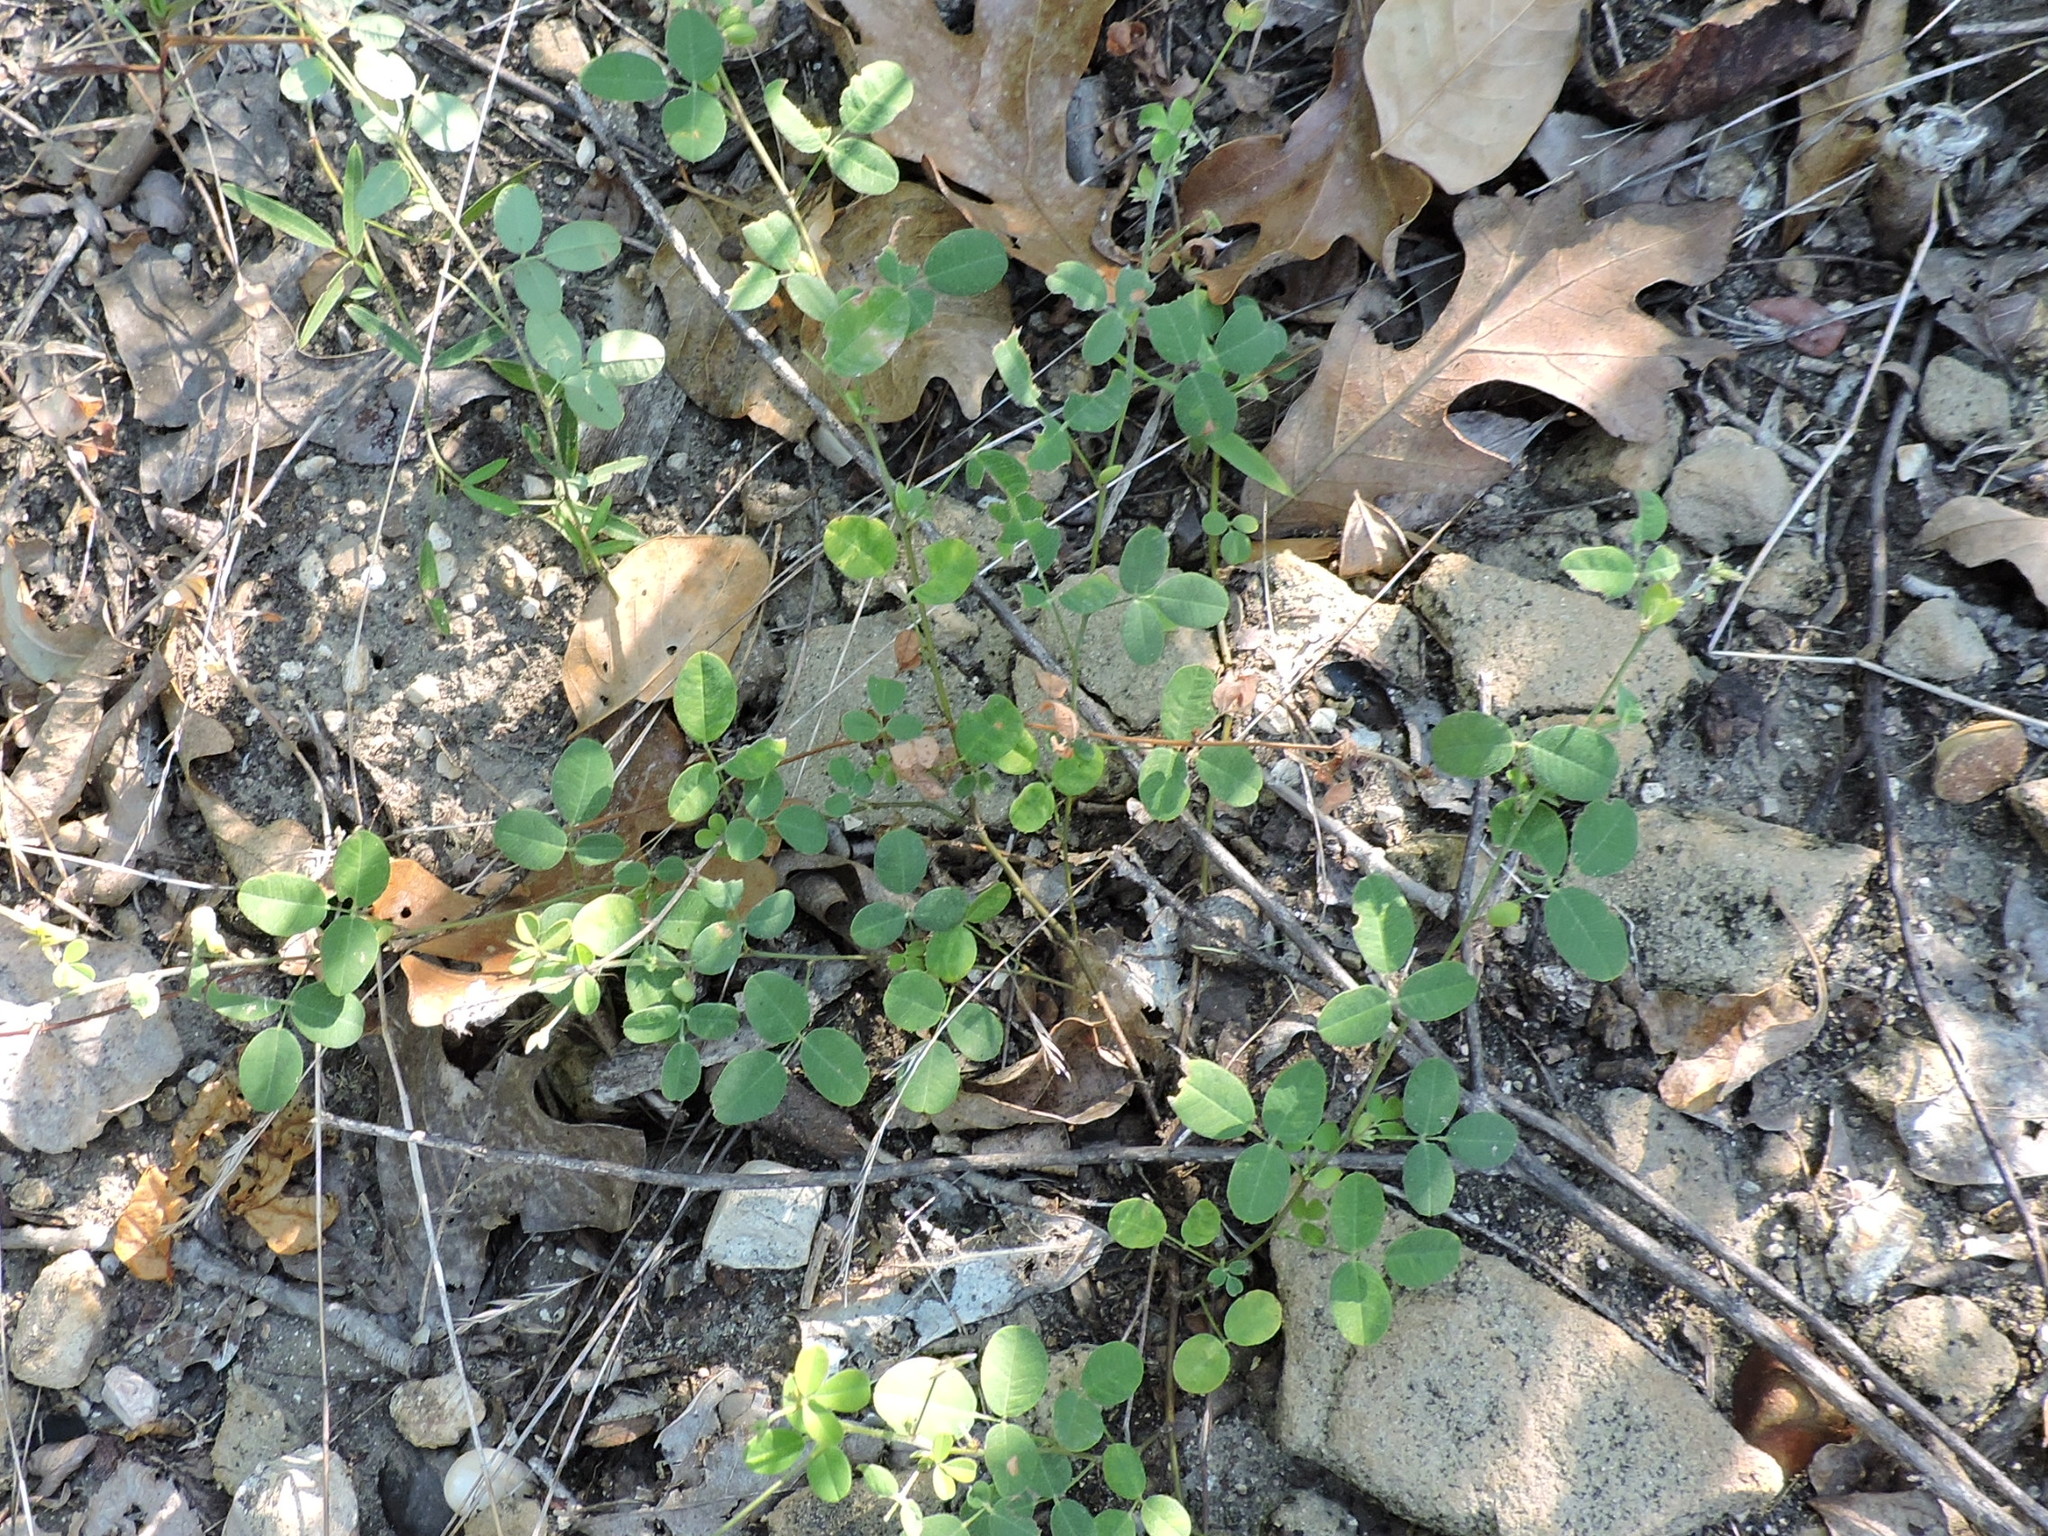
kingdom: Plantae
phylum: Tracheophyta
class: Magnoliopsida
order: Fabales
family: Fabaceae
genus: Lespedeza
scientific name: Lespedeza procumbens
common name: Downy trailing bush-clover
